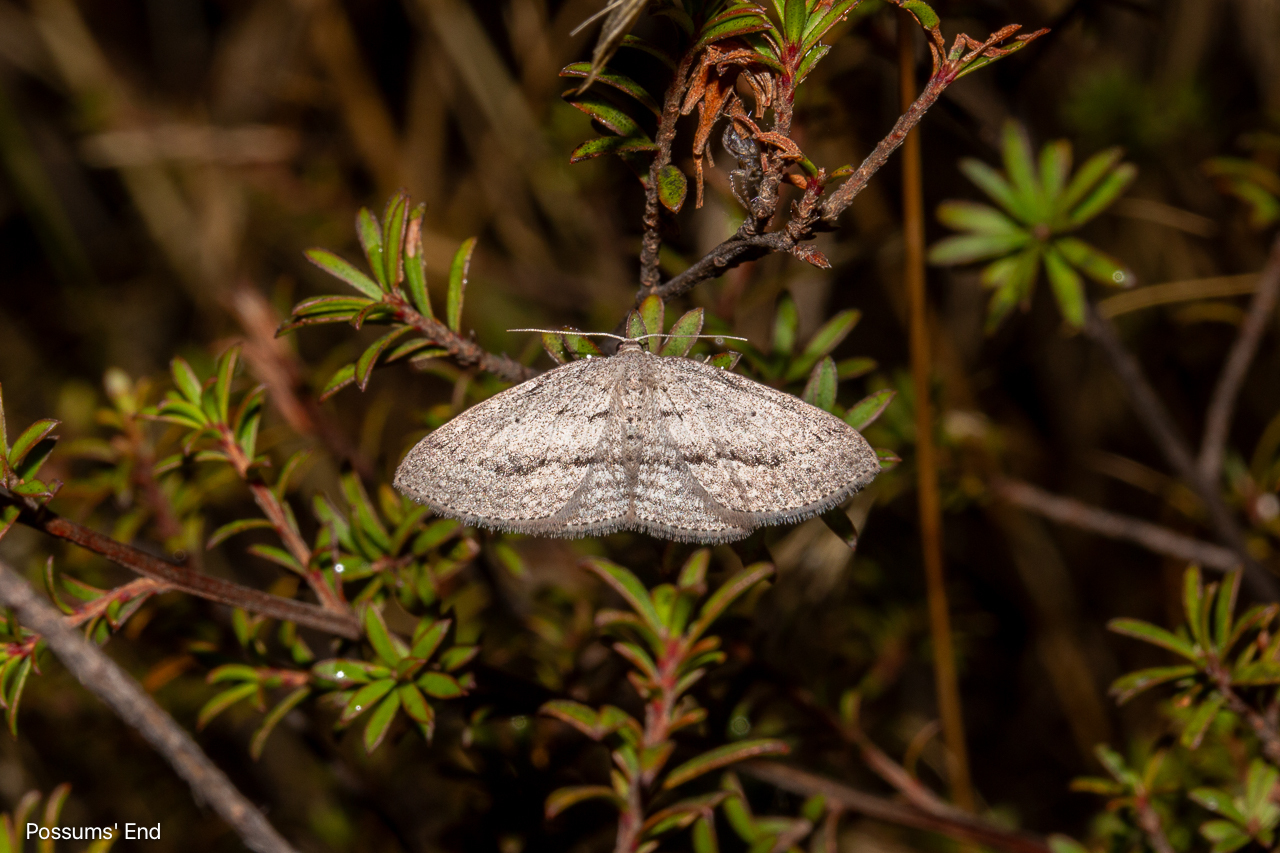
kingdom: Animalia
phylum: Arthropoda
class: Insecta
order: Lepidoptera
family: Geometridae
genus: Poecilasthena
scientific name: Poecilasthena schistaria
